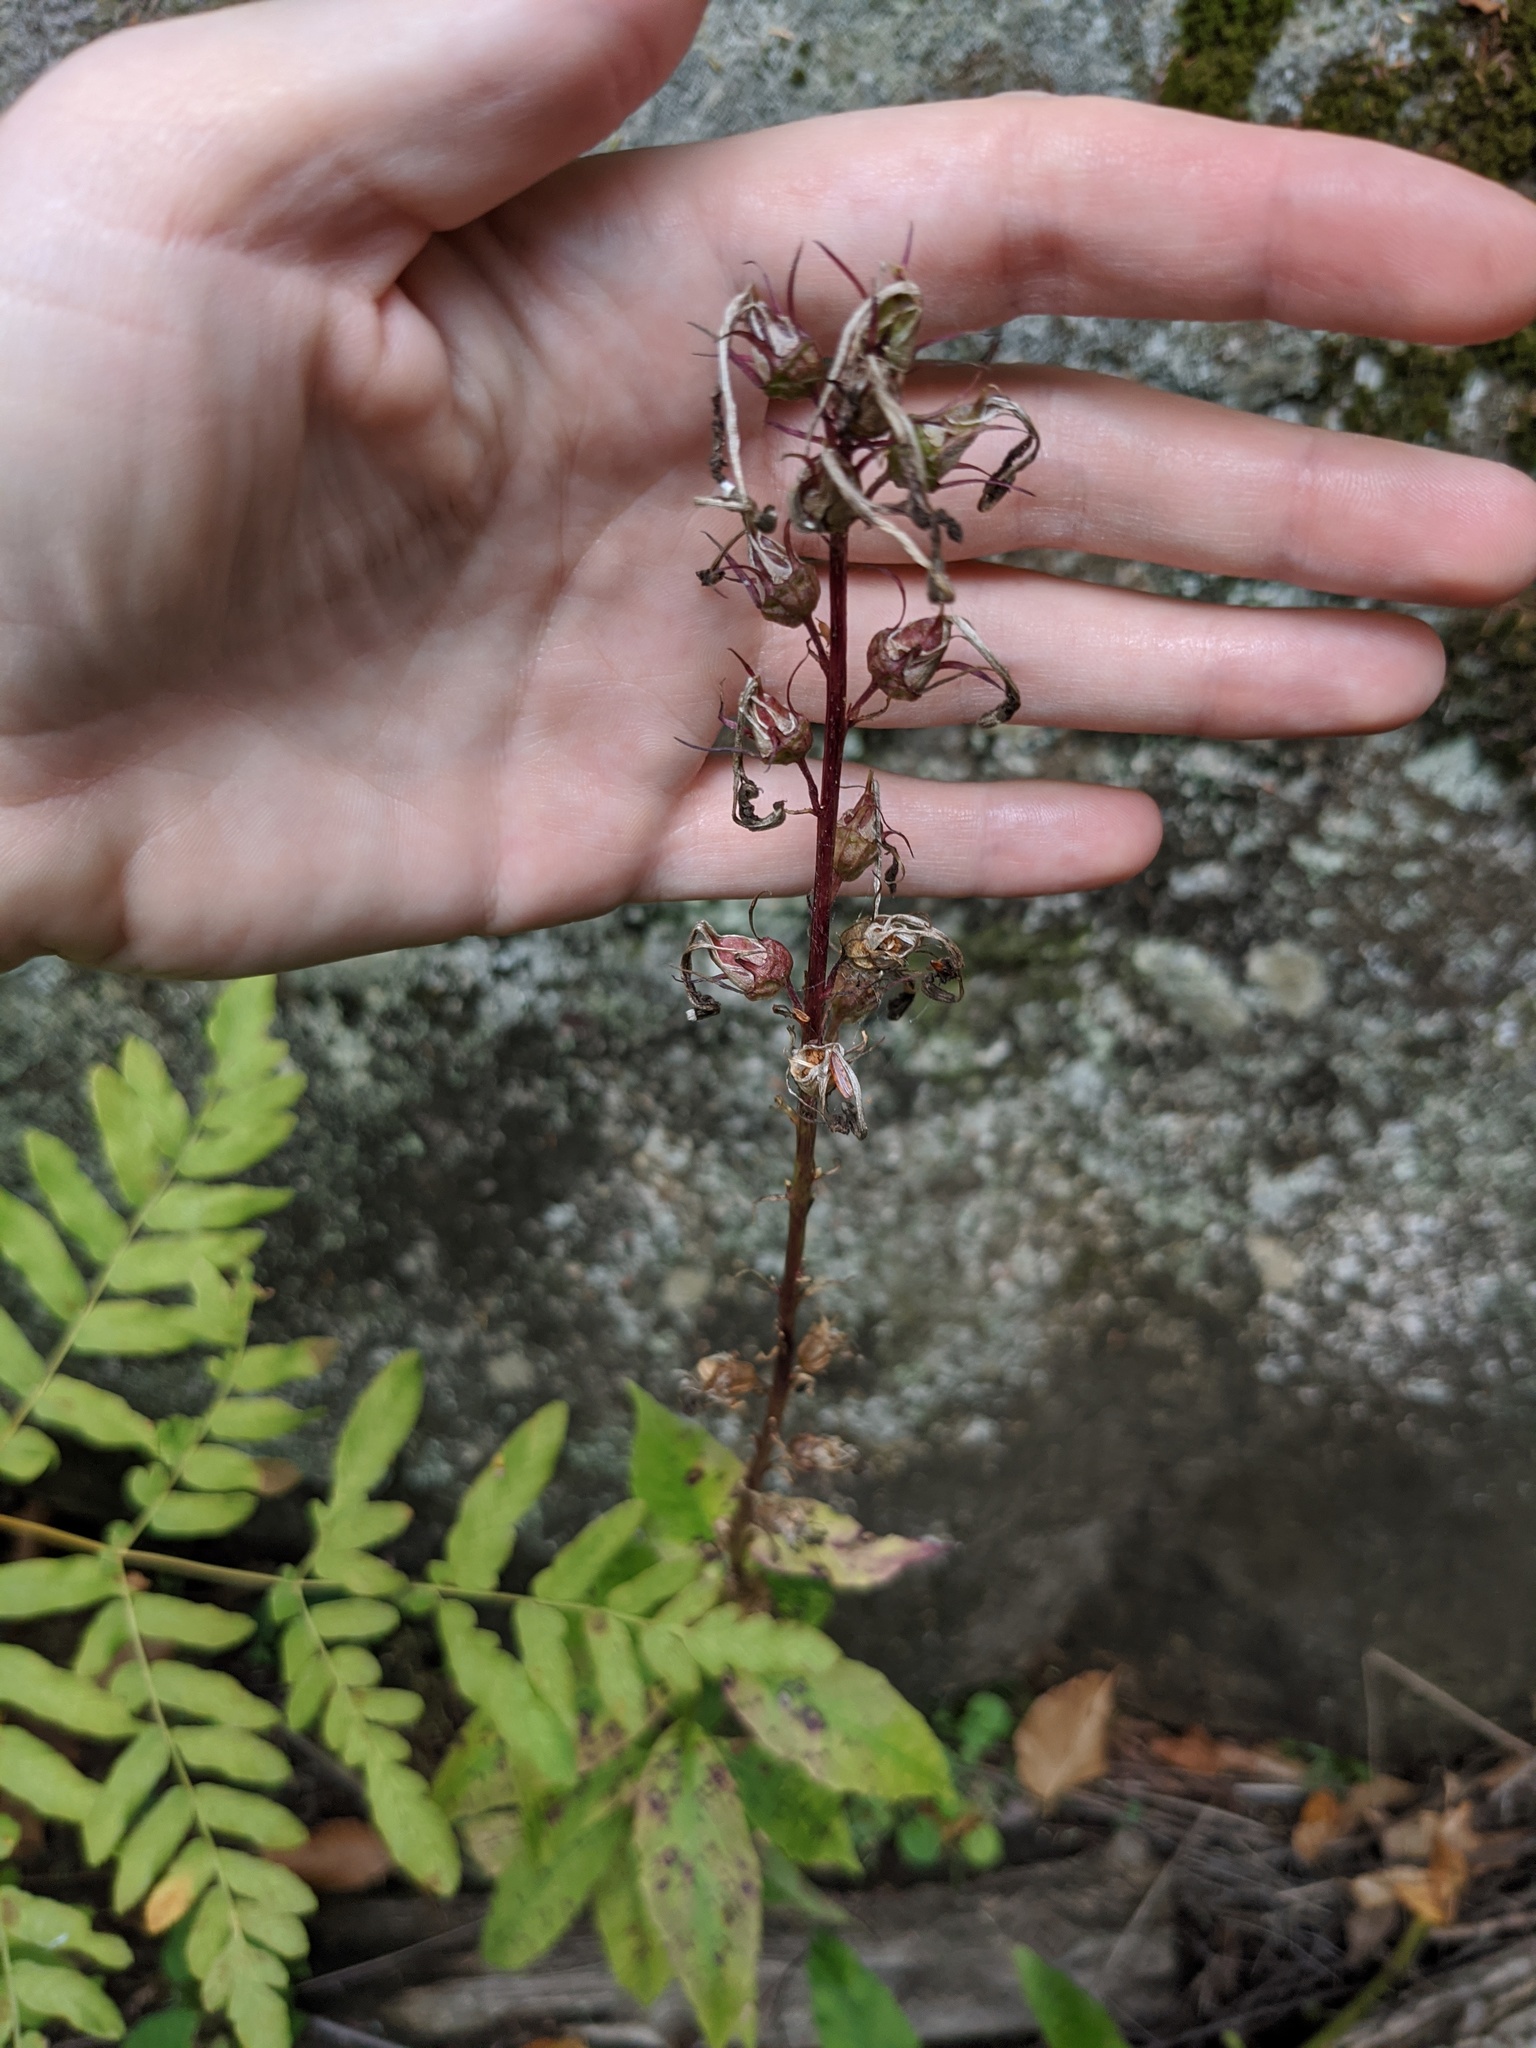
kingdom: Plantae
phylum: Tracheophyta
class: Magnoliopsida
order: Asterales
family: Campanulaceae
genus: Lobelia
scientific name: Lobelia cardinalis
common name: Cardinal flower
